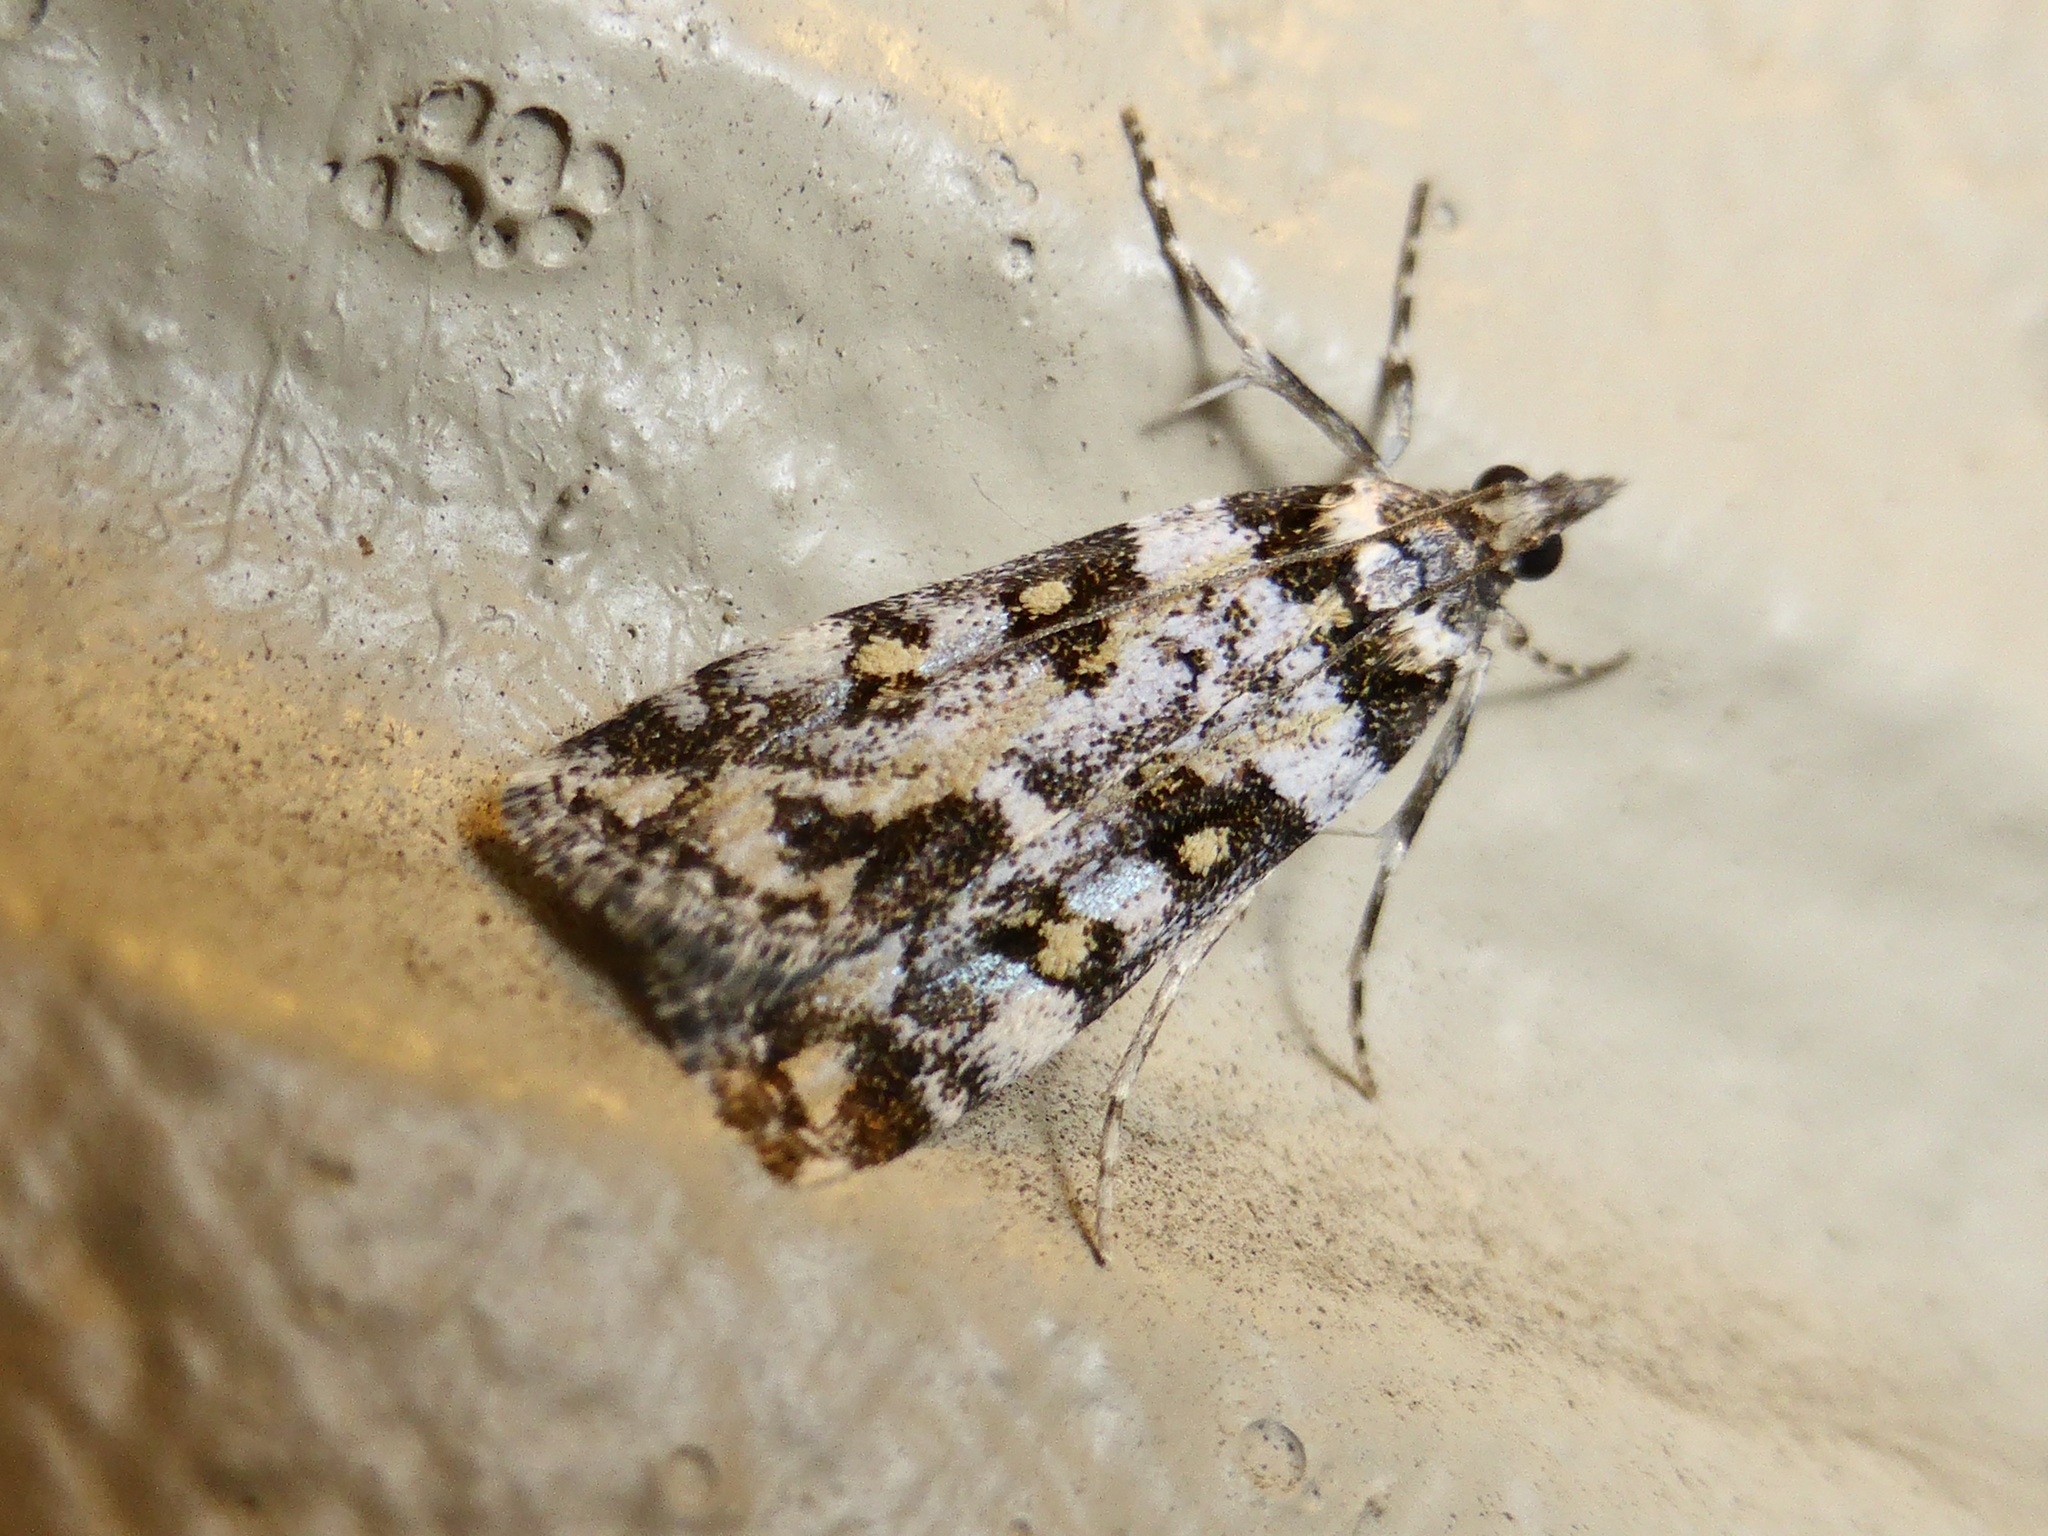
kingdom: Animalia
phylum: Arthropoda
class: Insecta
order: Lepidoptera
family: Crambidae
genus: Eudonia
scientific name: Eudonia diphtheralis
